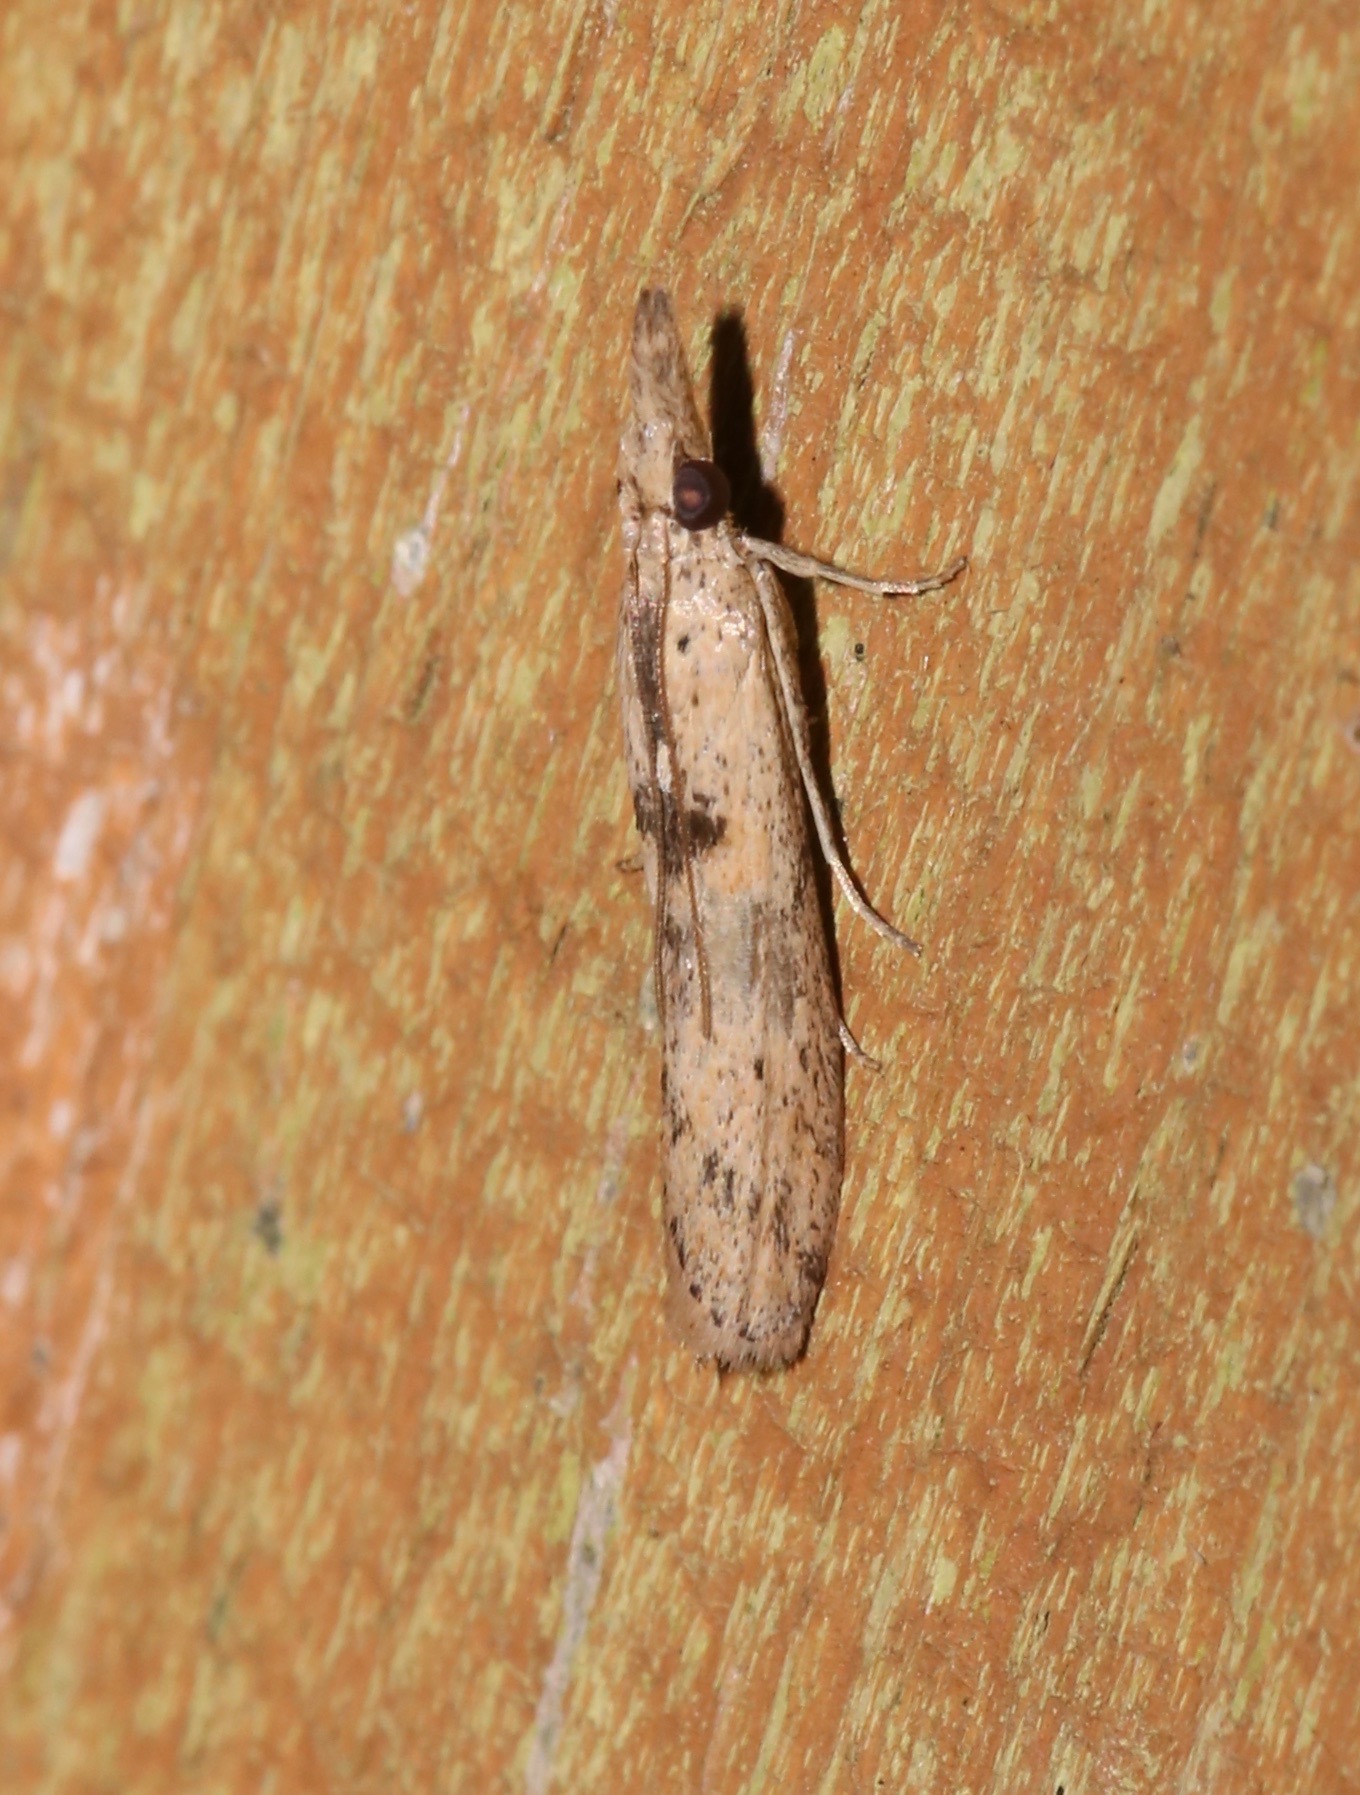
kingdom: Animalia
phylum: Arthropoda
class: Insecta
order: Lepidoptera
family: Pyralidae
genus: Macrorrhinia
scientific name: Macrorrhinia endonephele
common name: Alligator weed stemborer moth
